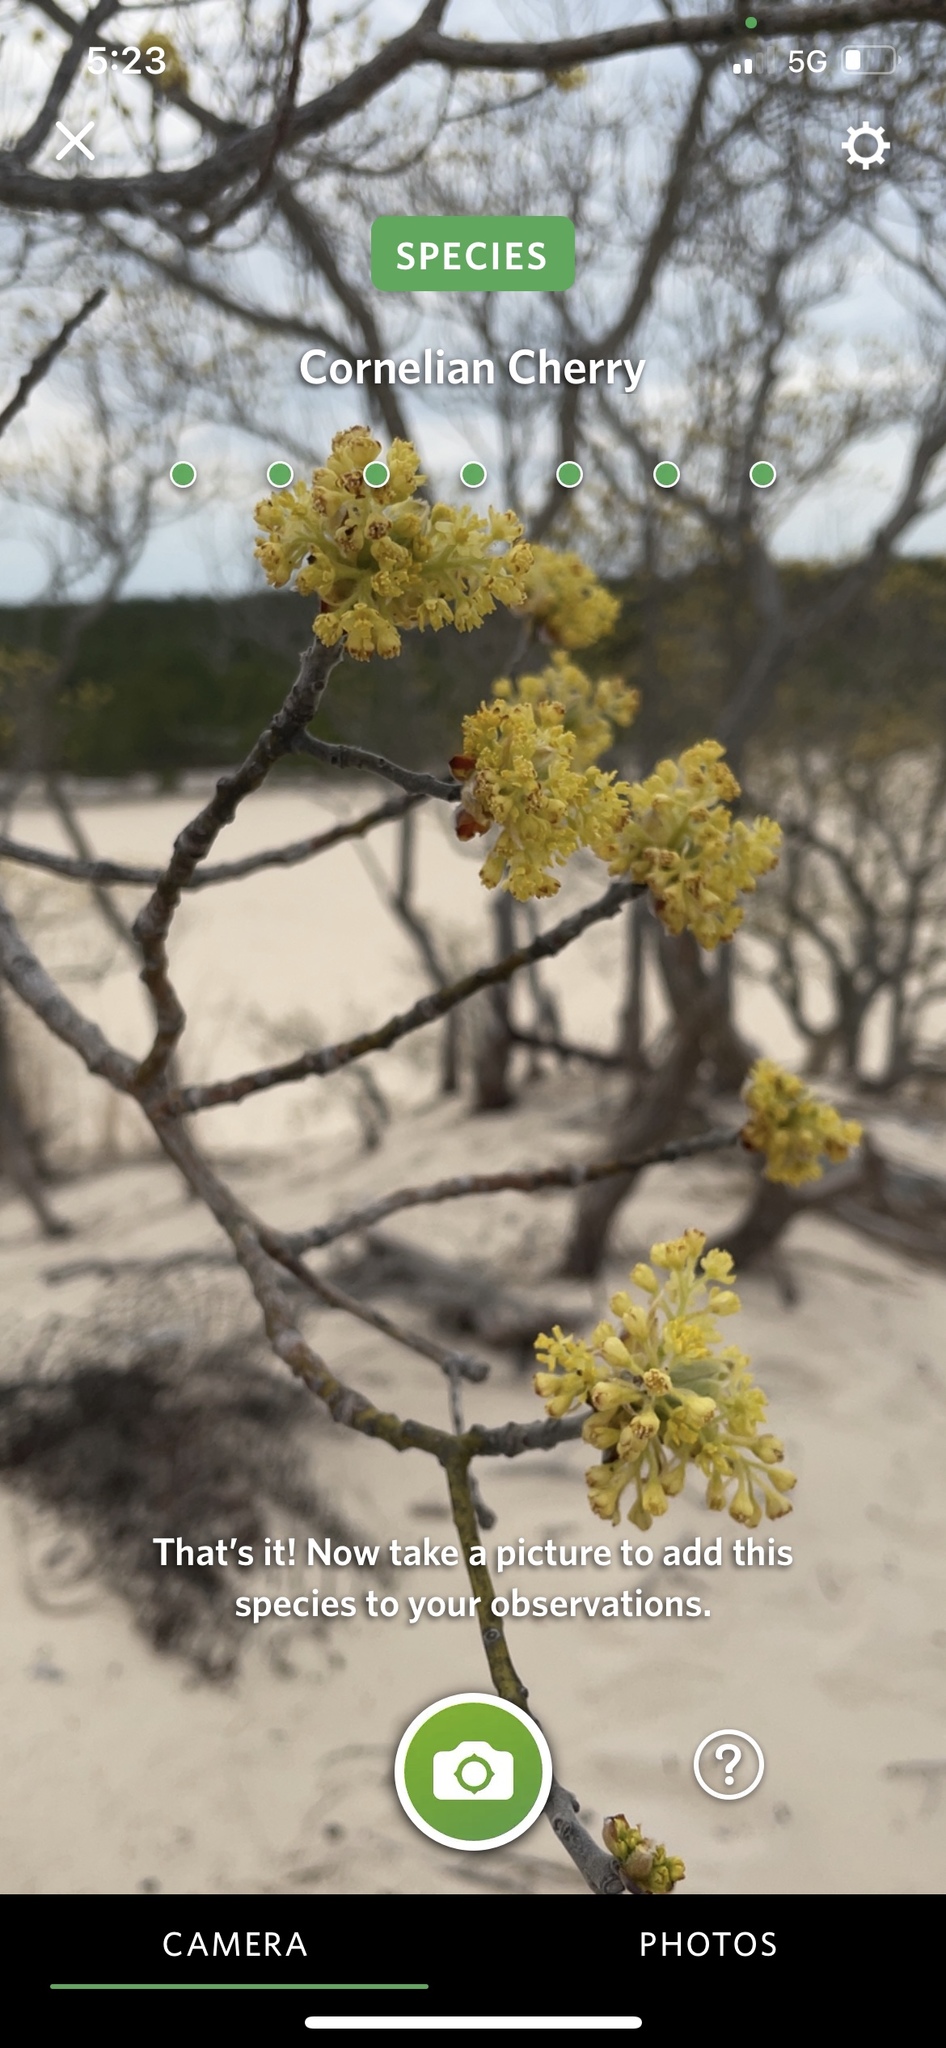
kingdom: Plantae
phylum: Tracheophyta
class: Magnoliopsida
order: Cornales
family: Cornaceae
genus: Cornus
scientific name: Cornus mas
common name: Cornelian-cherry
